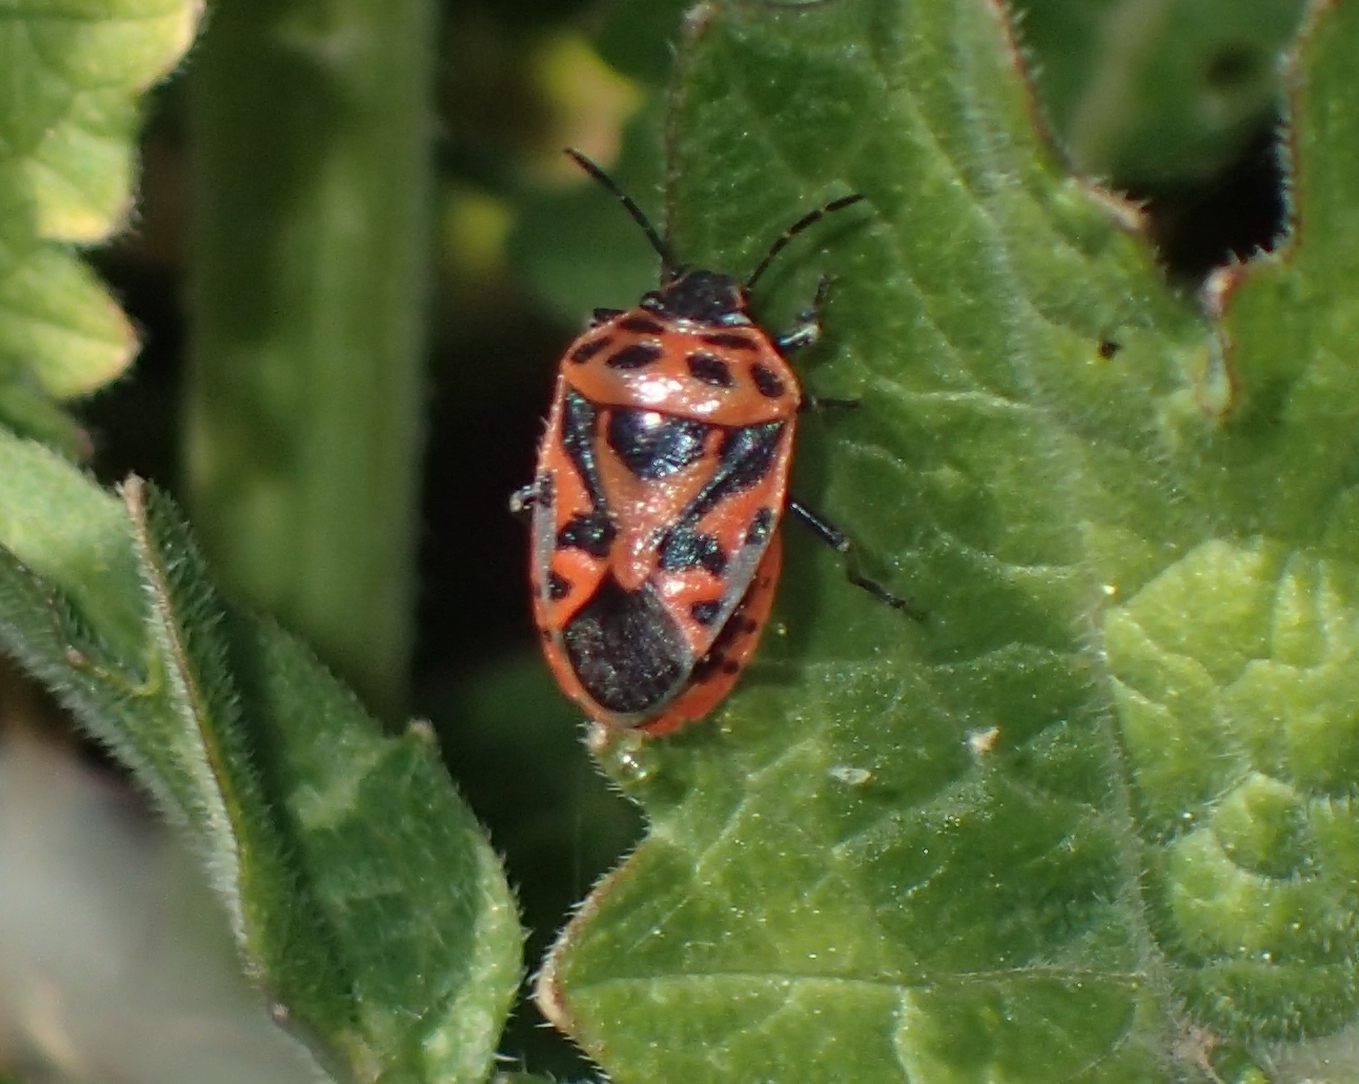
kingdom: Animalia
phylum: Arthropoda
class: Insecta
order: Hemiptera
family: Pentatomidae
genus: Eurydema
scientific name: Eurydema ornata
